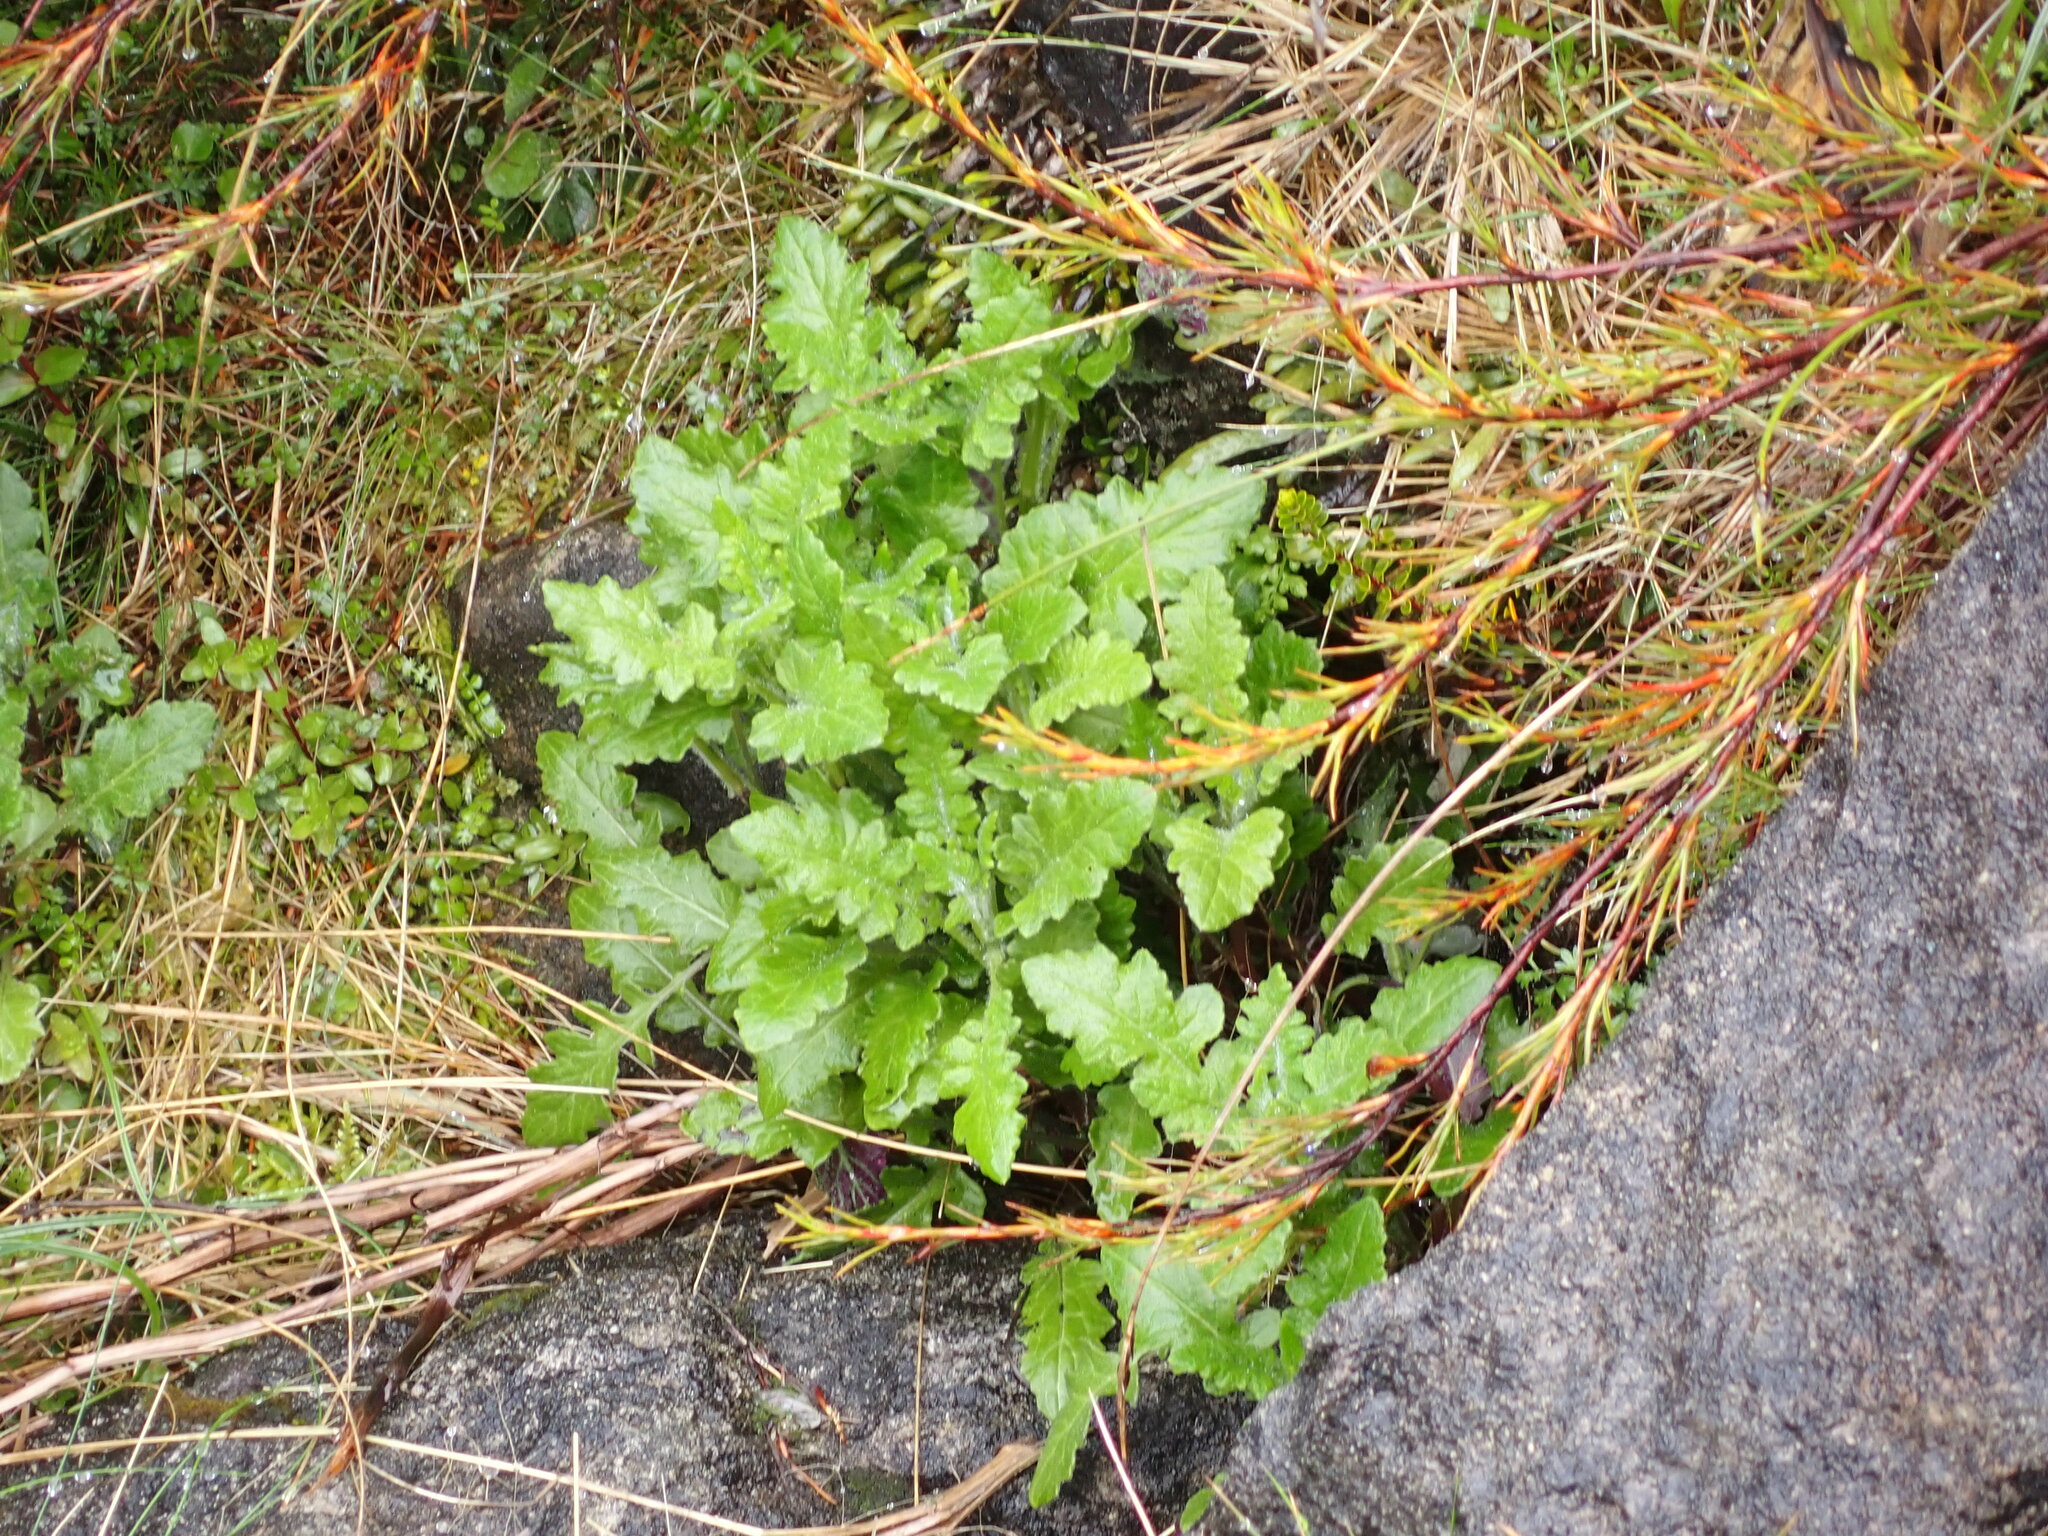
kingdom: Plantae
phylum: Tracheophyta
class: Magnoliopsida
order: Asterales
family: Asteraceae
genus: Senecio
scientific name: Senecio wairauensis
